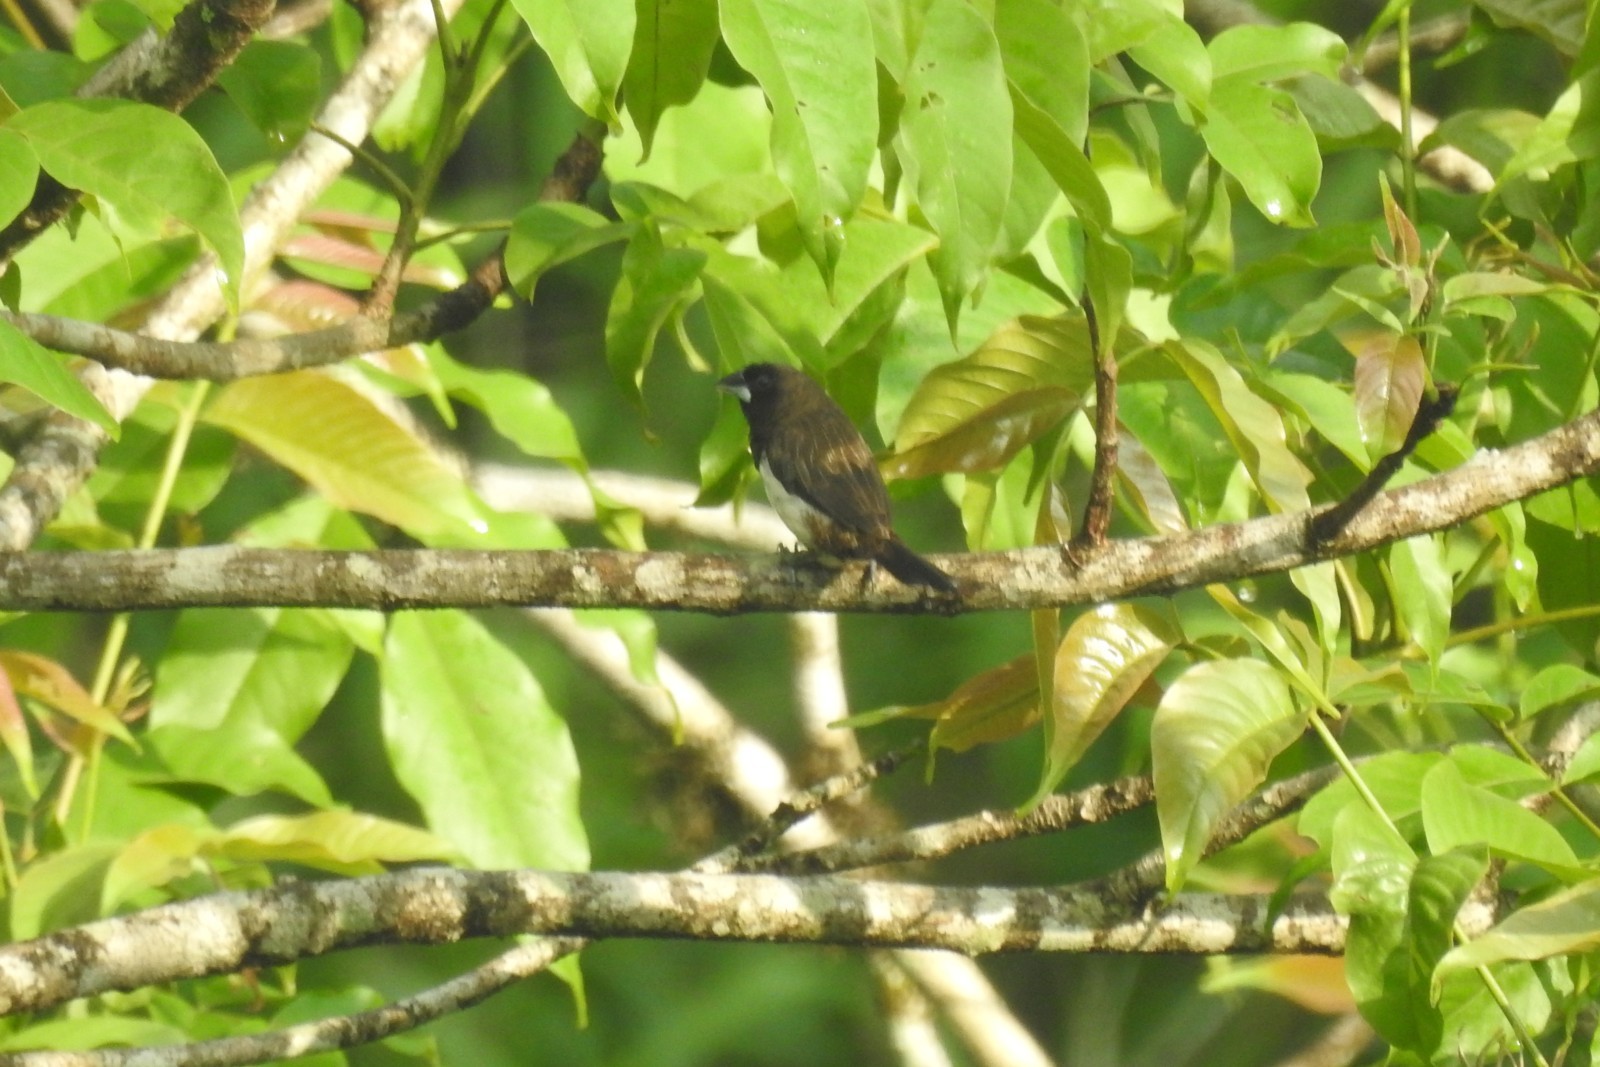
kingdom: Animalia
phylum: Chordata
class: Aves
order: Passeriformes
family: Estrildidae
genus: Lonchura
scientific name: Lonchura striata
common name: White-rumped munia
